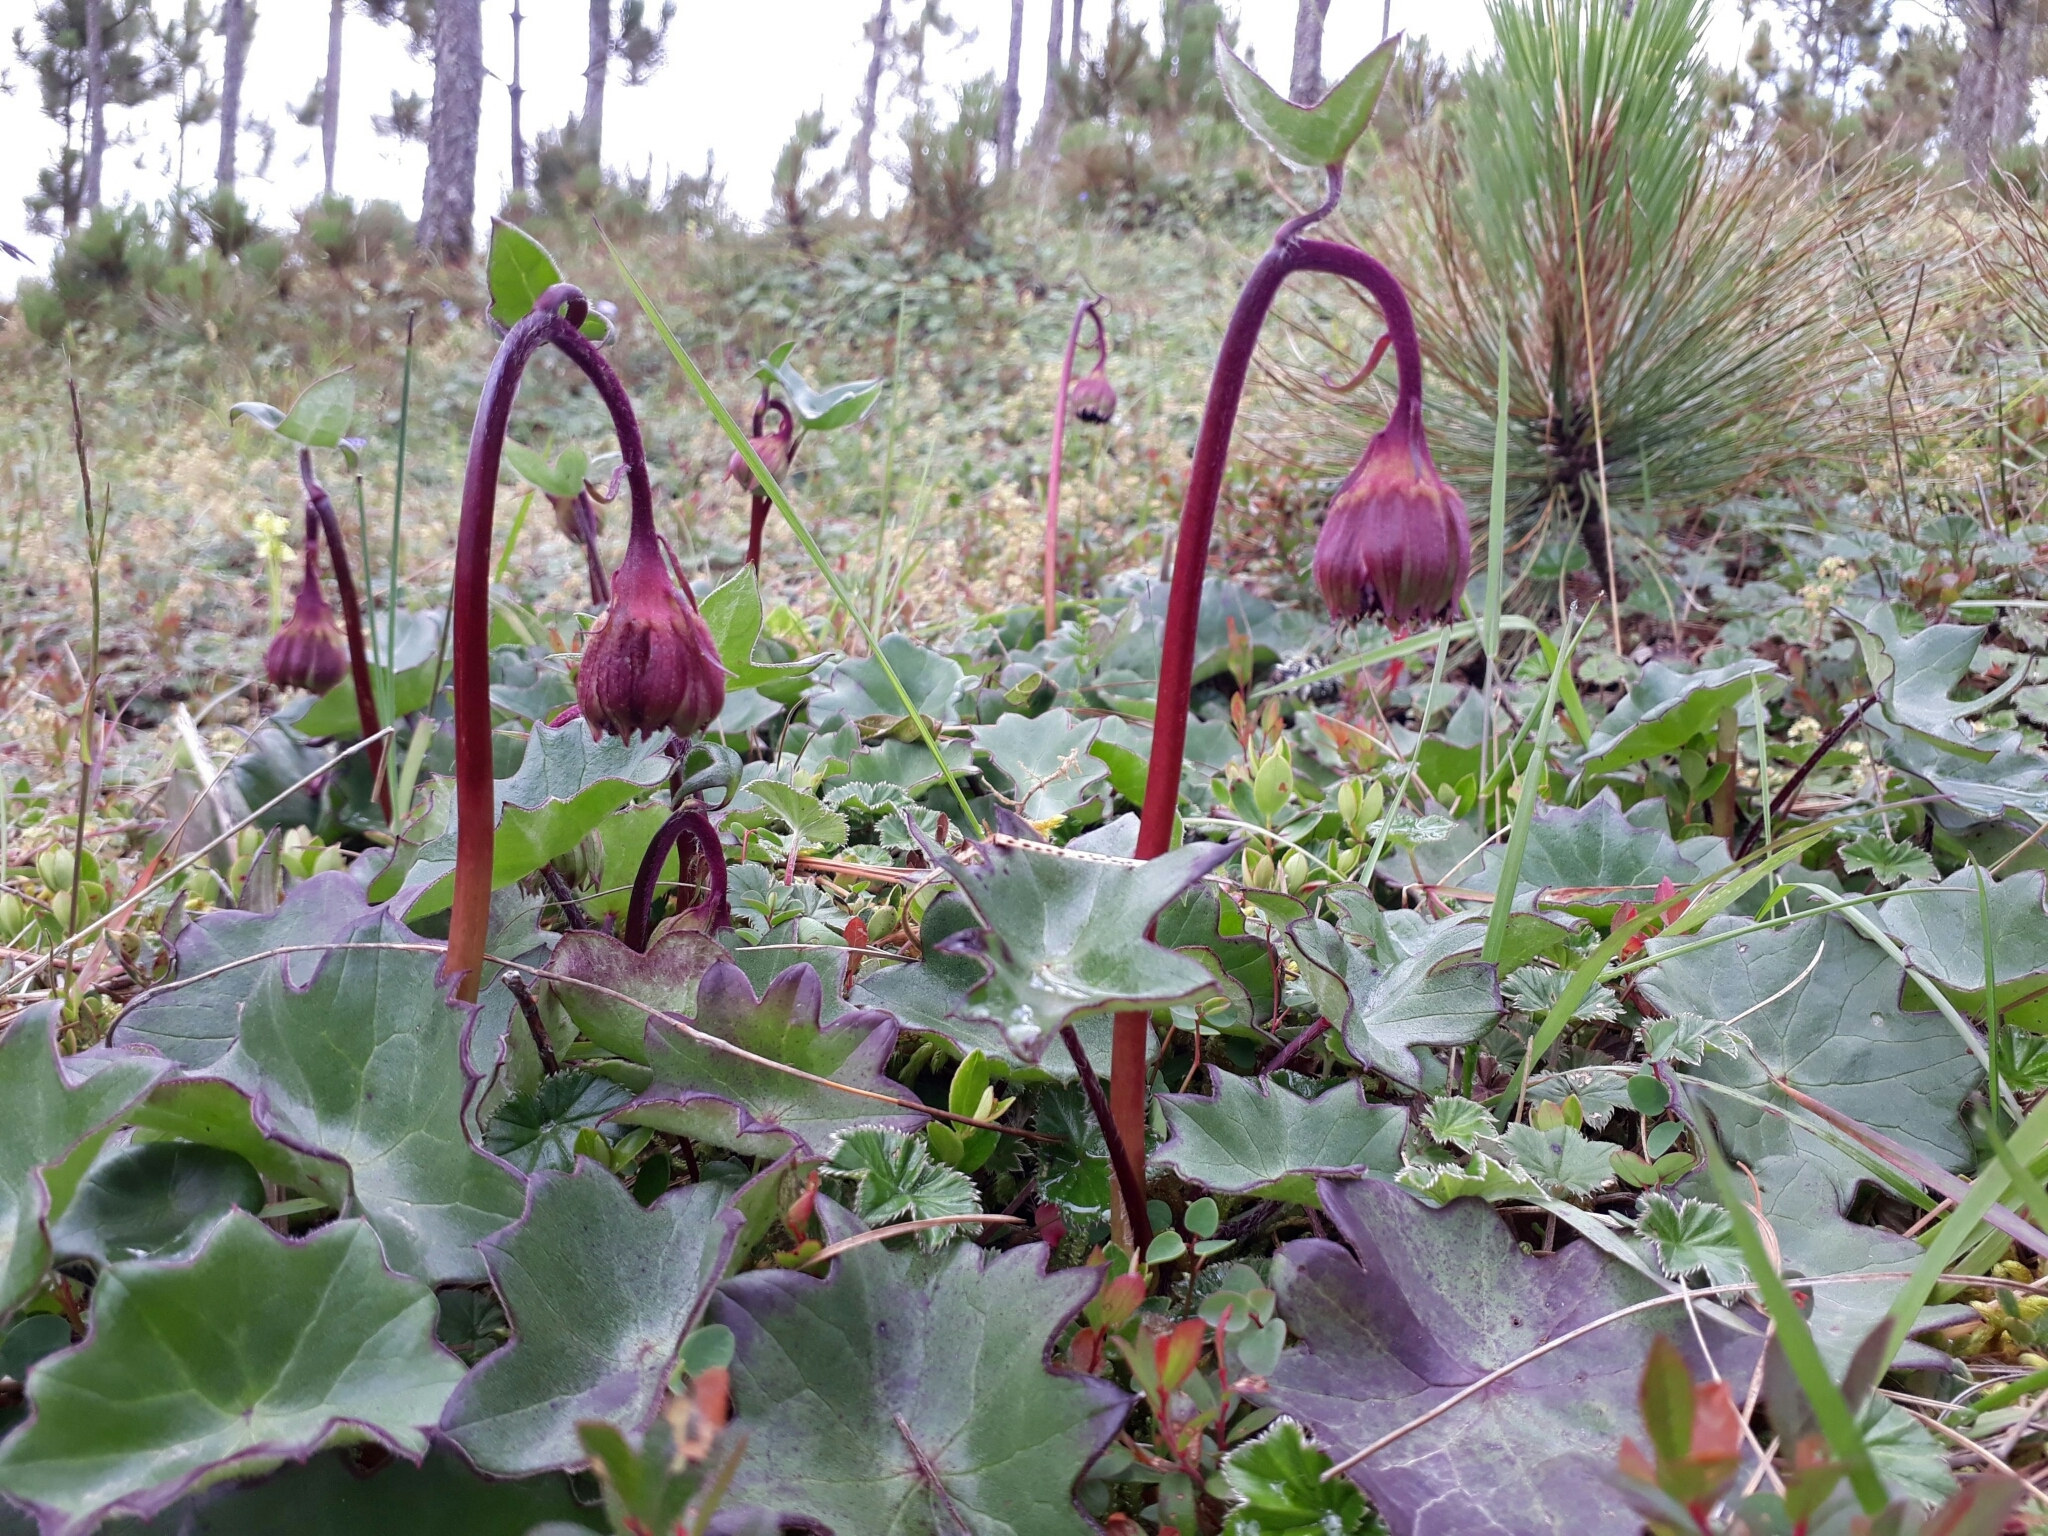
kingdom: Plantae
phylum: Tracheophyta
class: Magnoliopsida
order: Asterales
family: Asteraceae
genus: Psacaliopsis
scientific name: Psacaliopsis pudica
